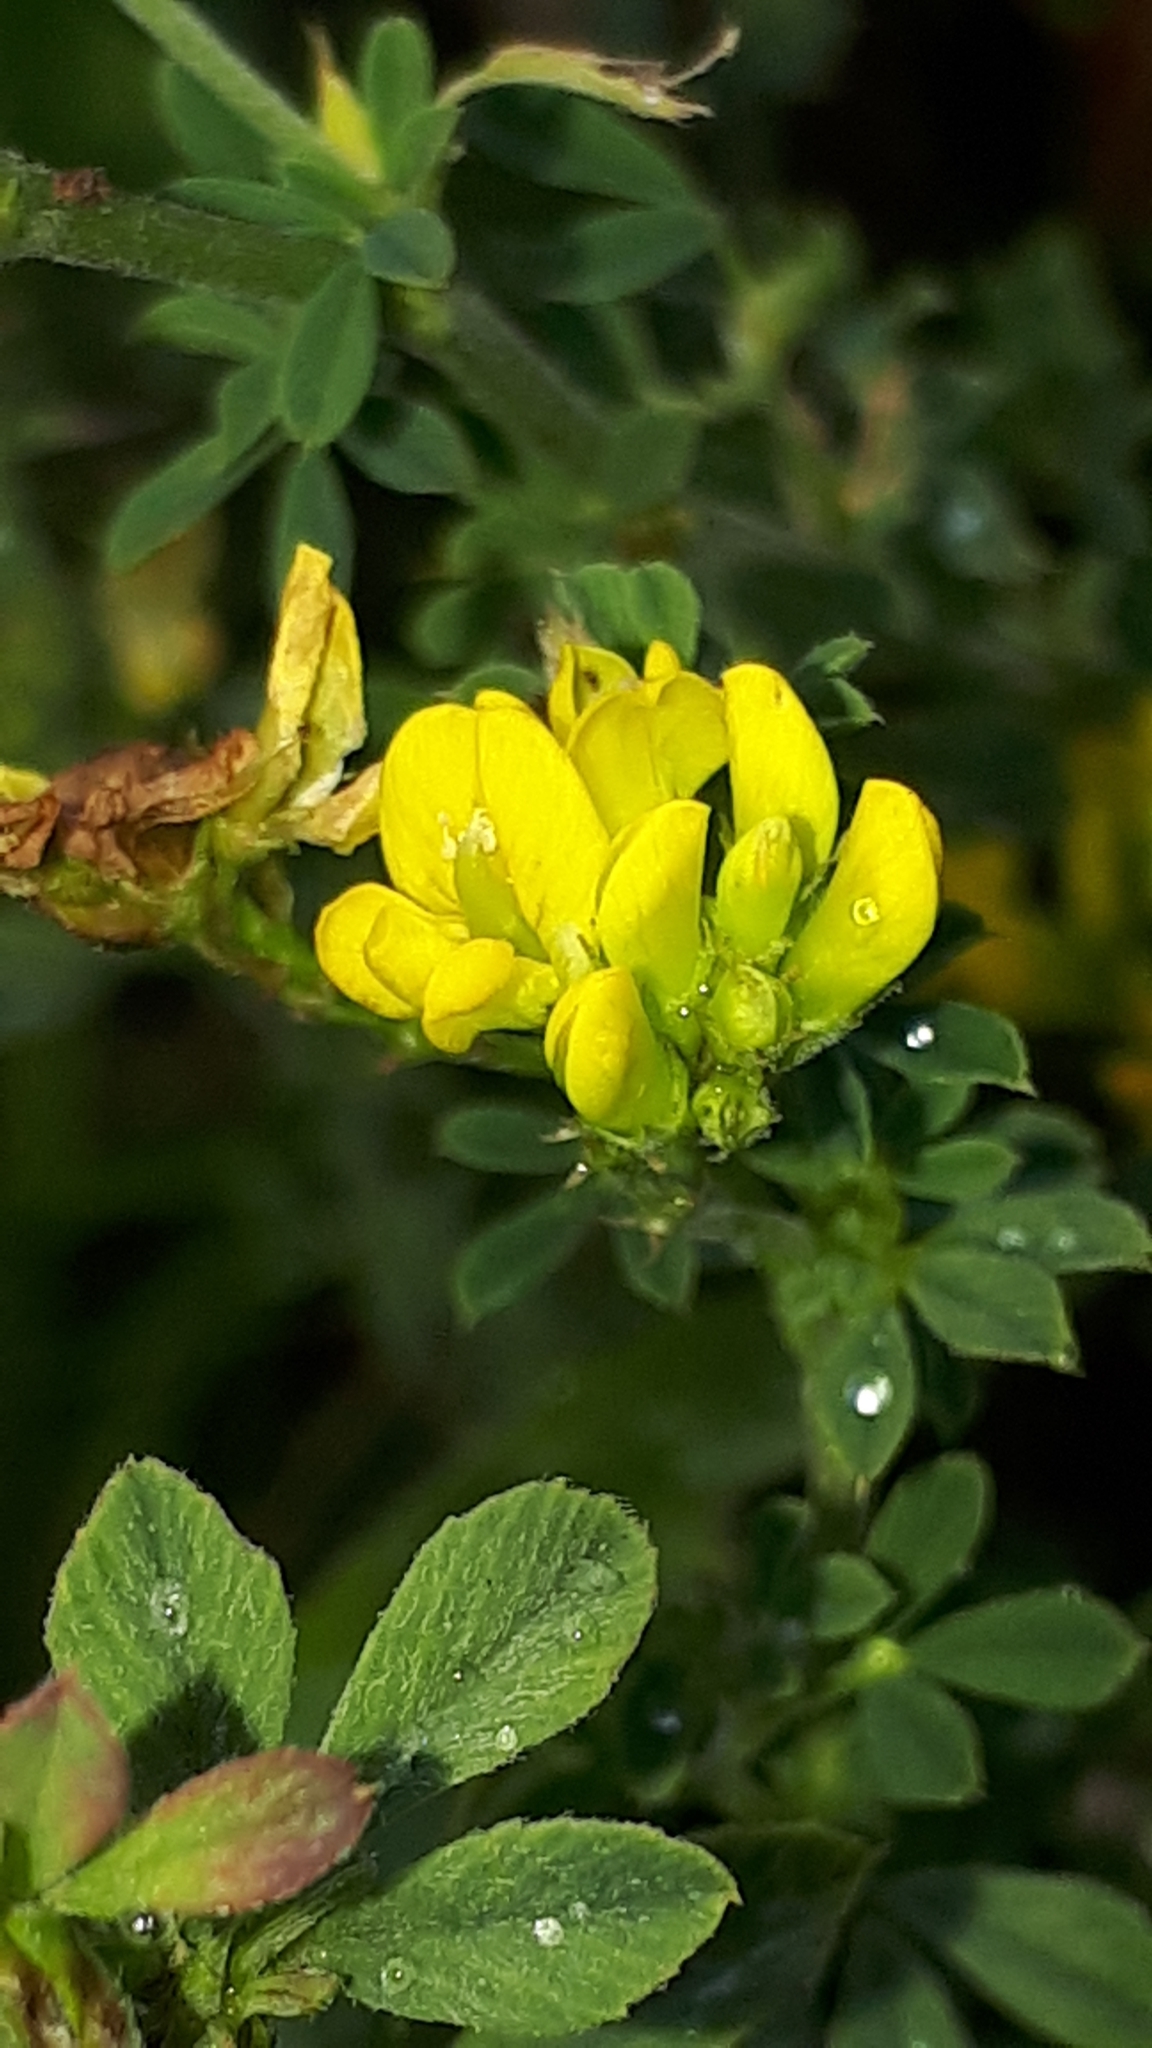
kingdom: Plantae
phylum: Tracheophyta
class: Magnoliopsida
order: Fabales
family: Fabaceae
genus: Medicago
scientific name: Medicago falcata
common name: Sickle medick
